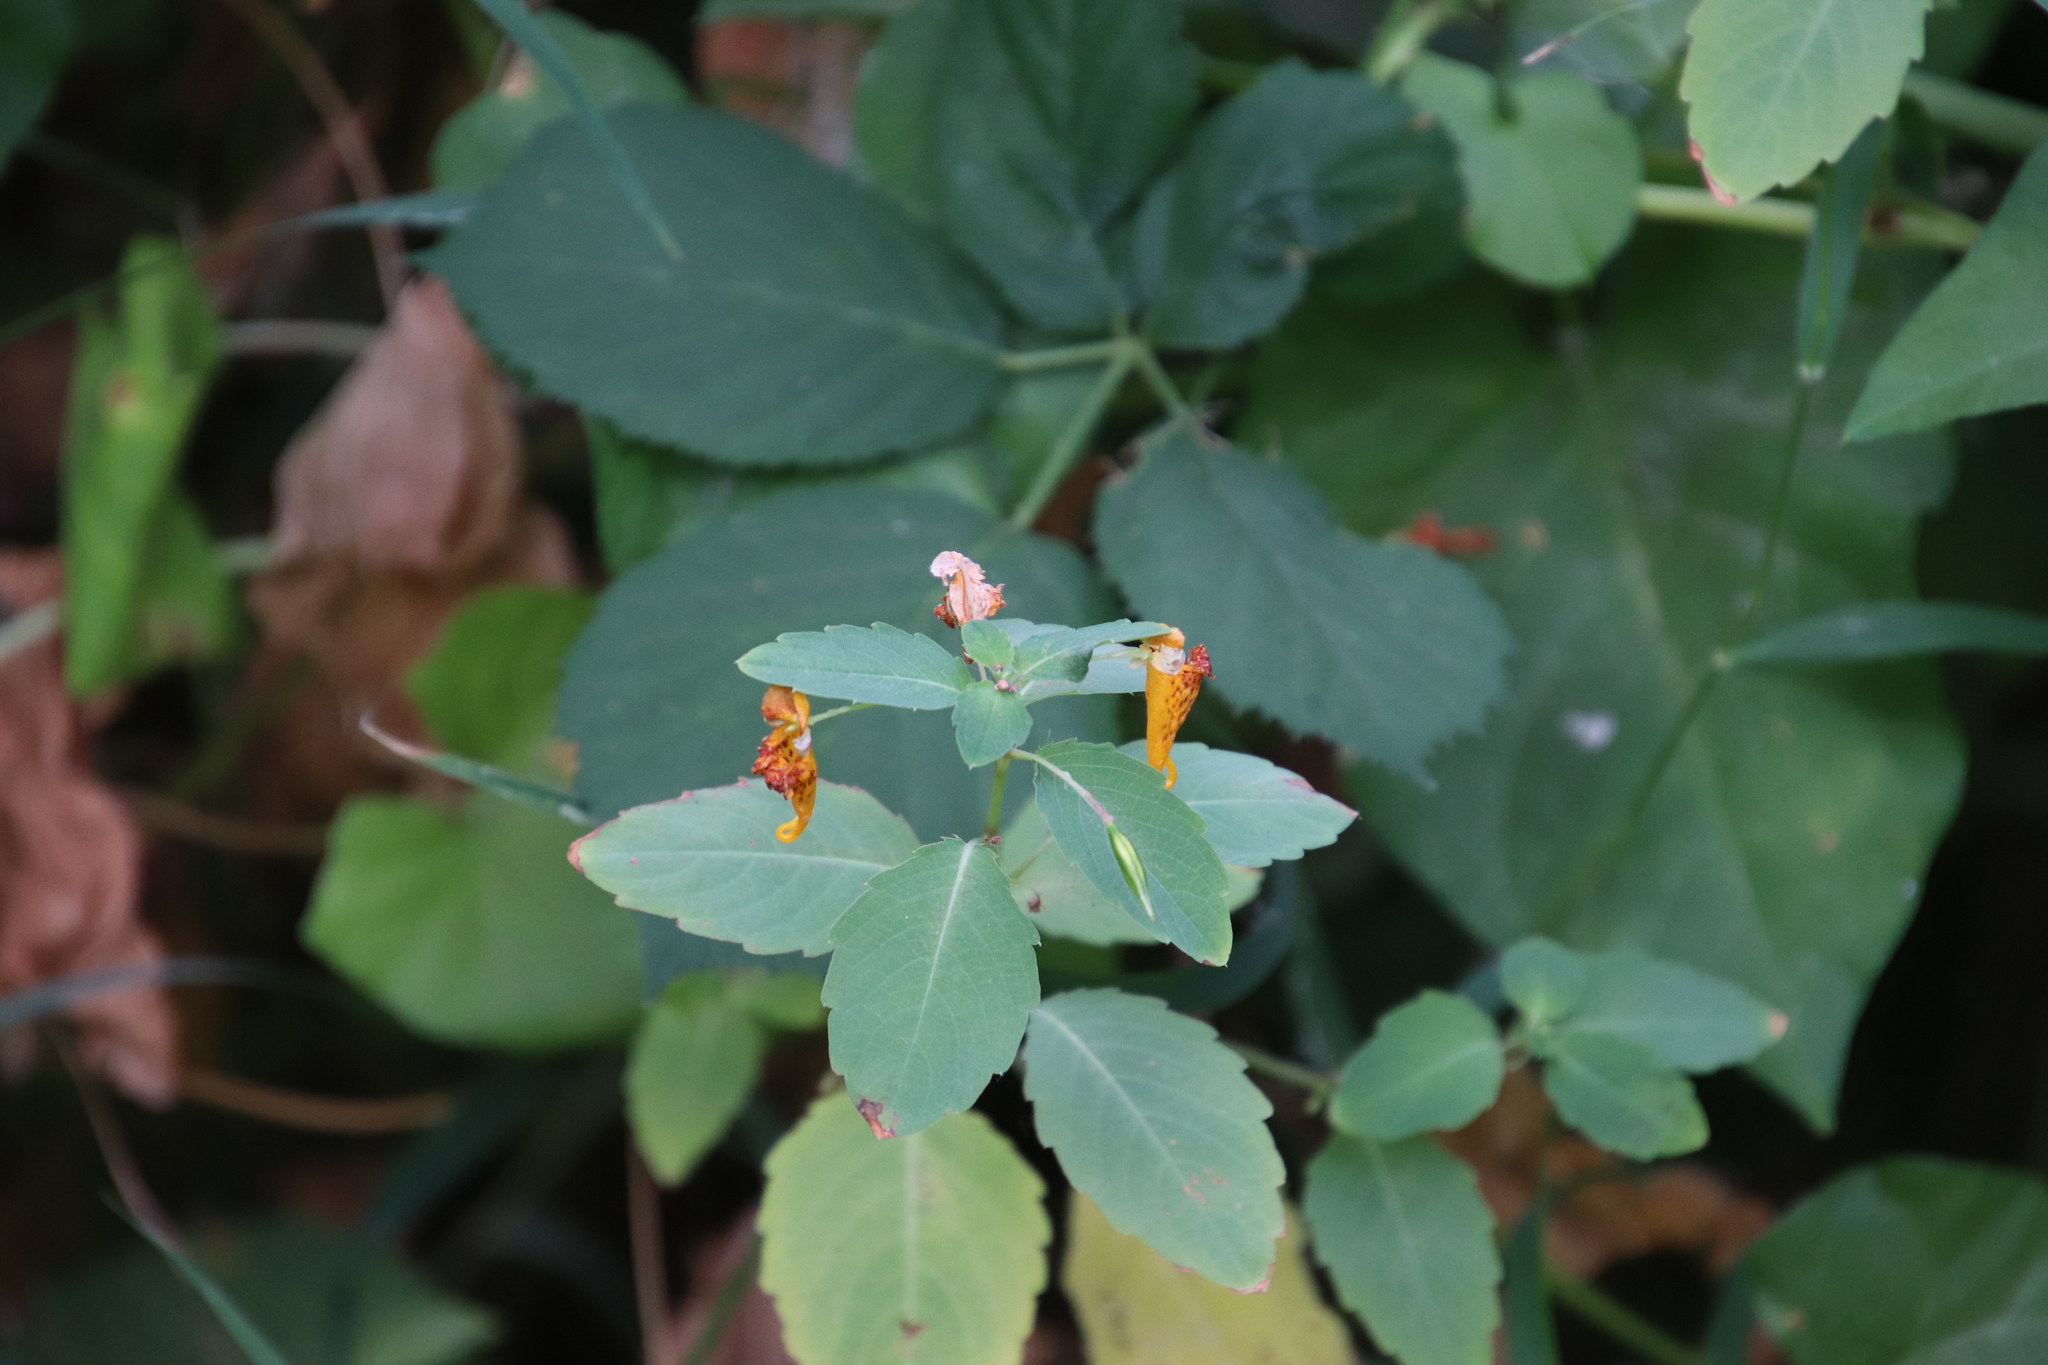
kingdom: Plantae
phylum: Tracheophyta
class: Magnoliopsida
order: Ericales
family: Balsaminaceae
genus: Impatiens
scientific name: Impatiens capensis
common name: Orange balsam
